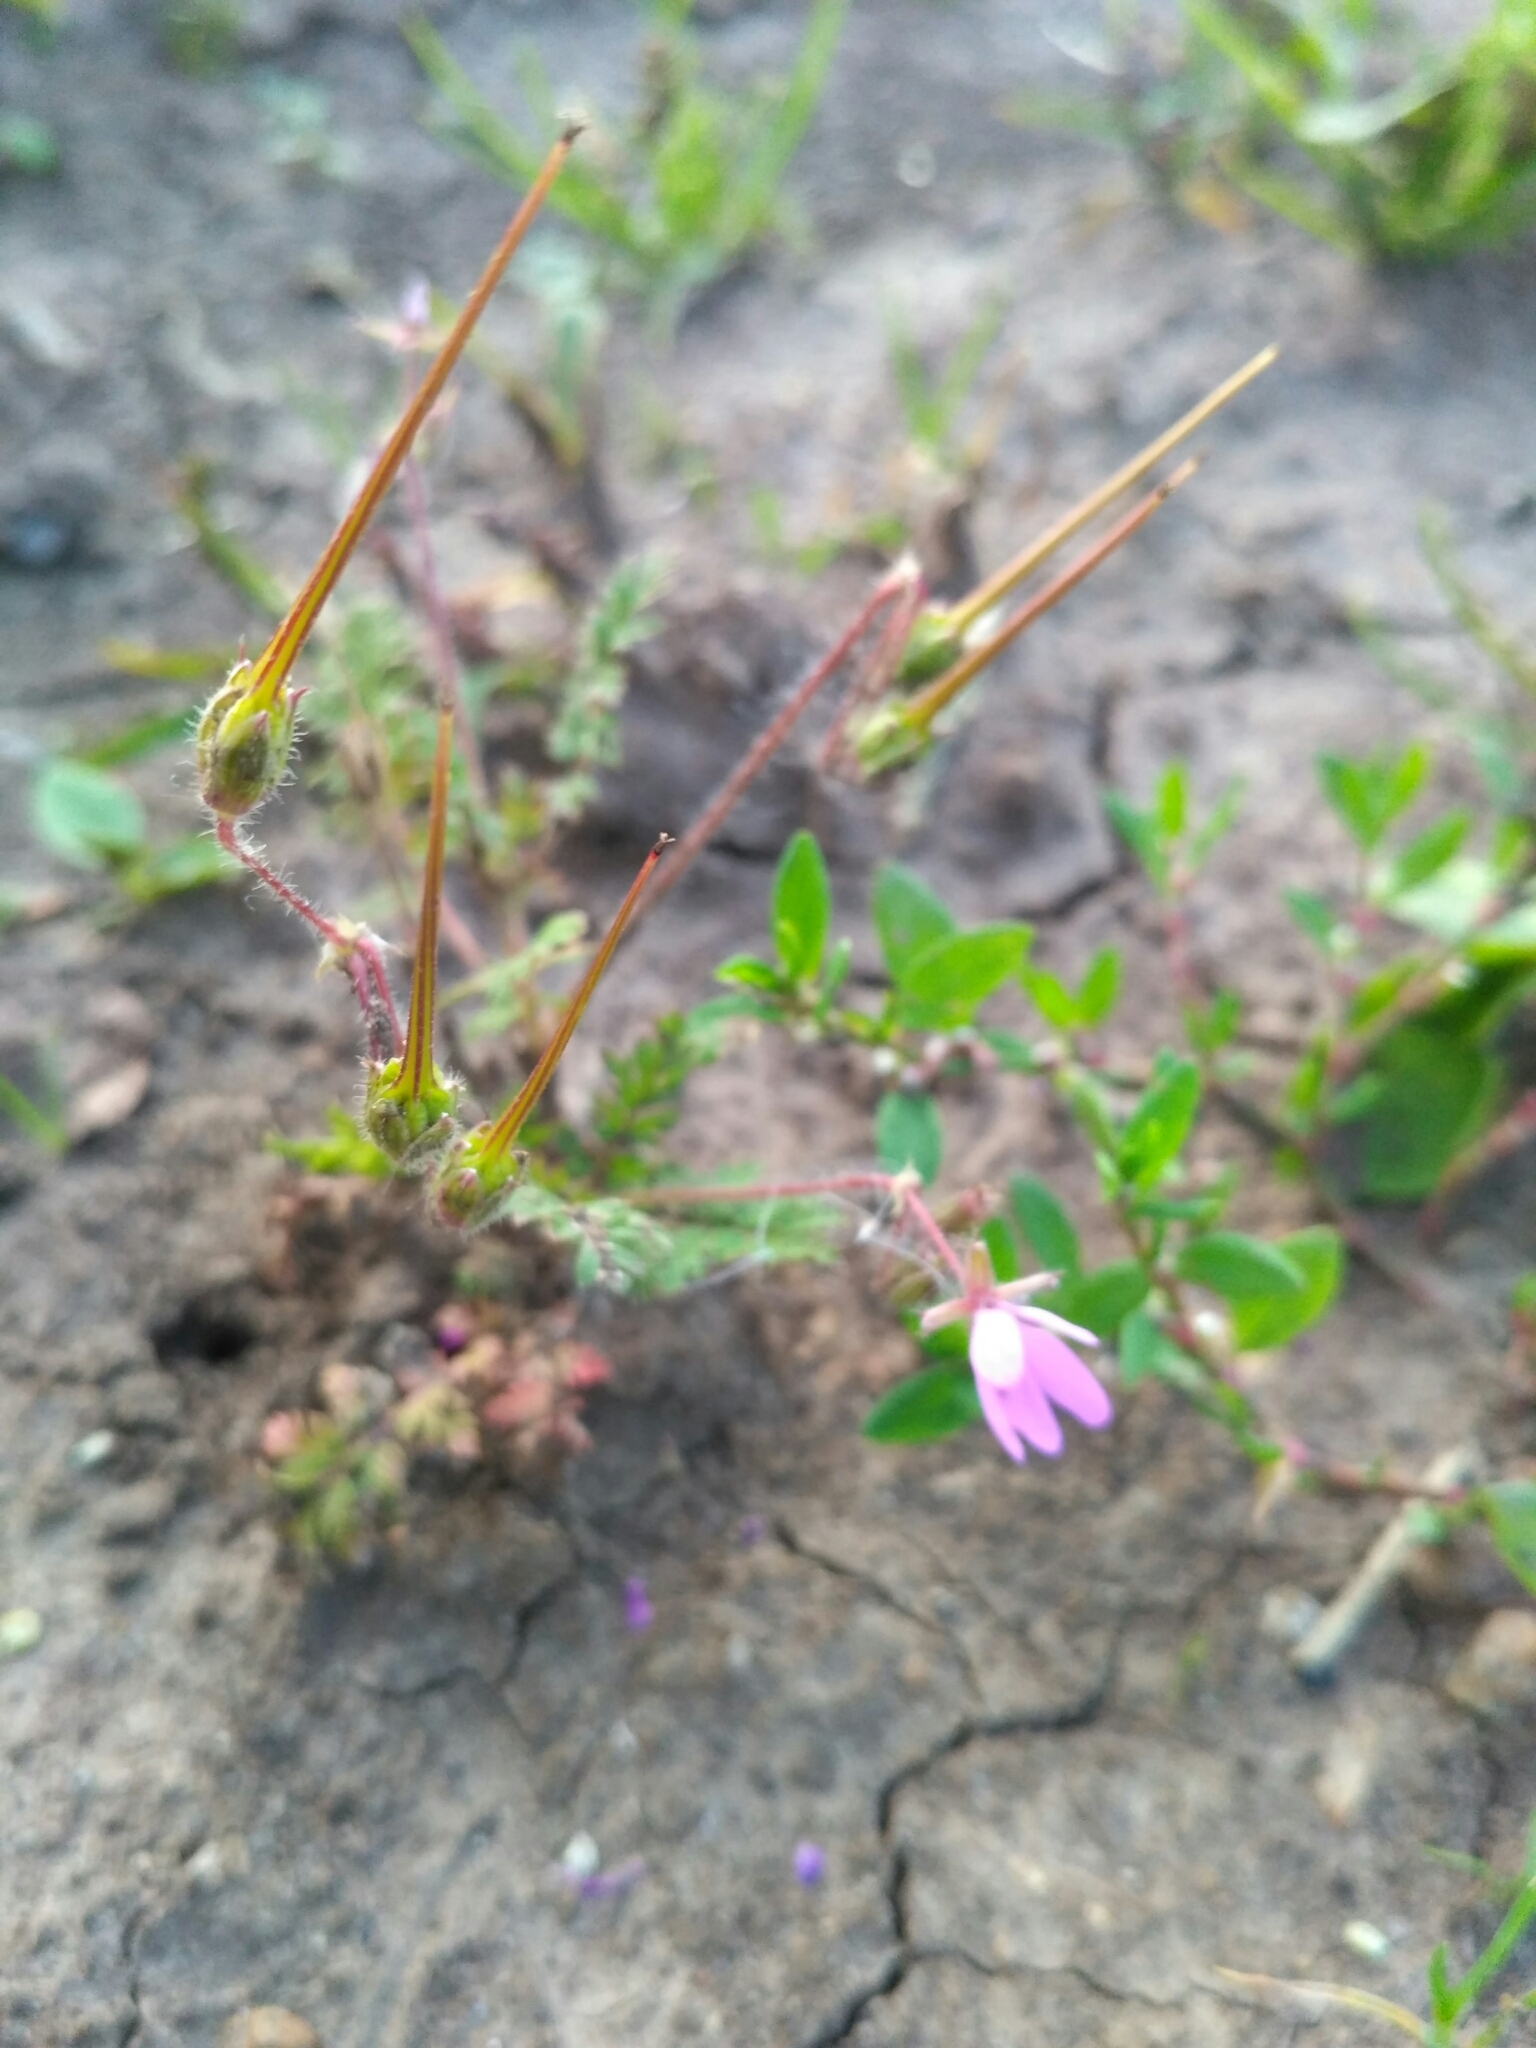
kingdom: Plantae
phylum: Tracheophyta
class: Magnoliopsida
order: Geraniales
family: Geraniaceae
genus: Erodium
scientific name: Erodium cicutarium
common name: Common stork's-bill
